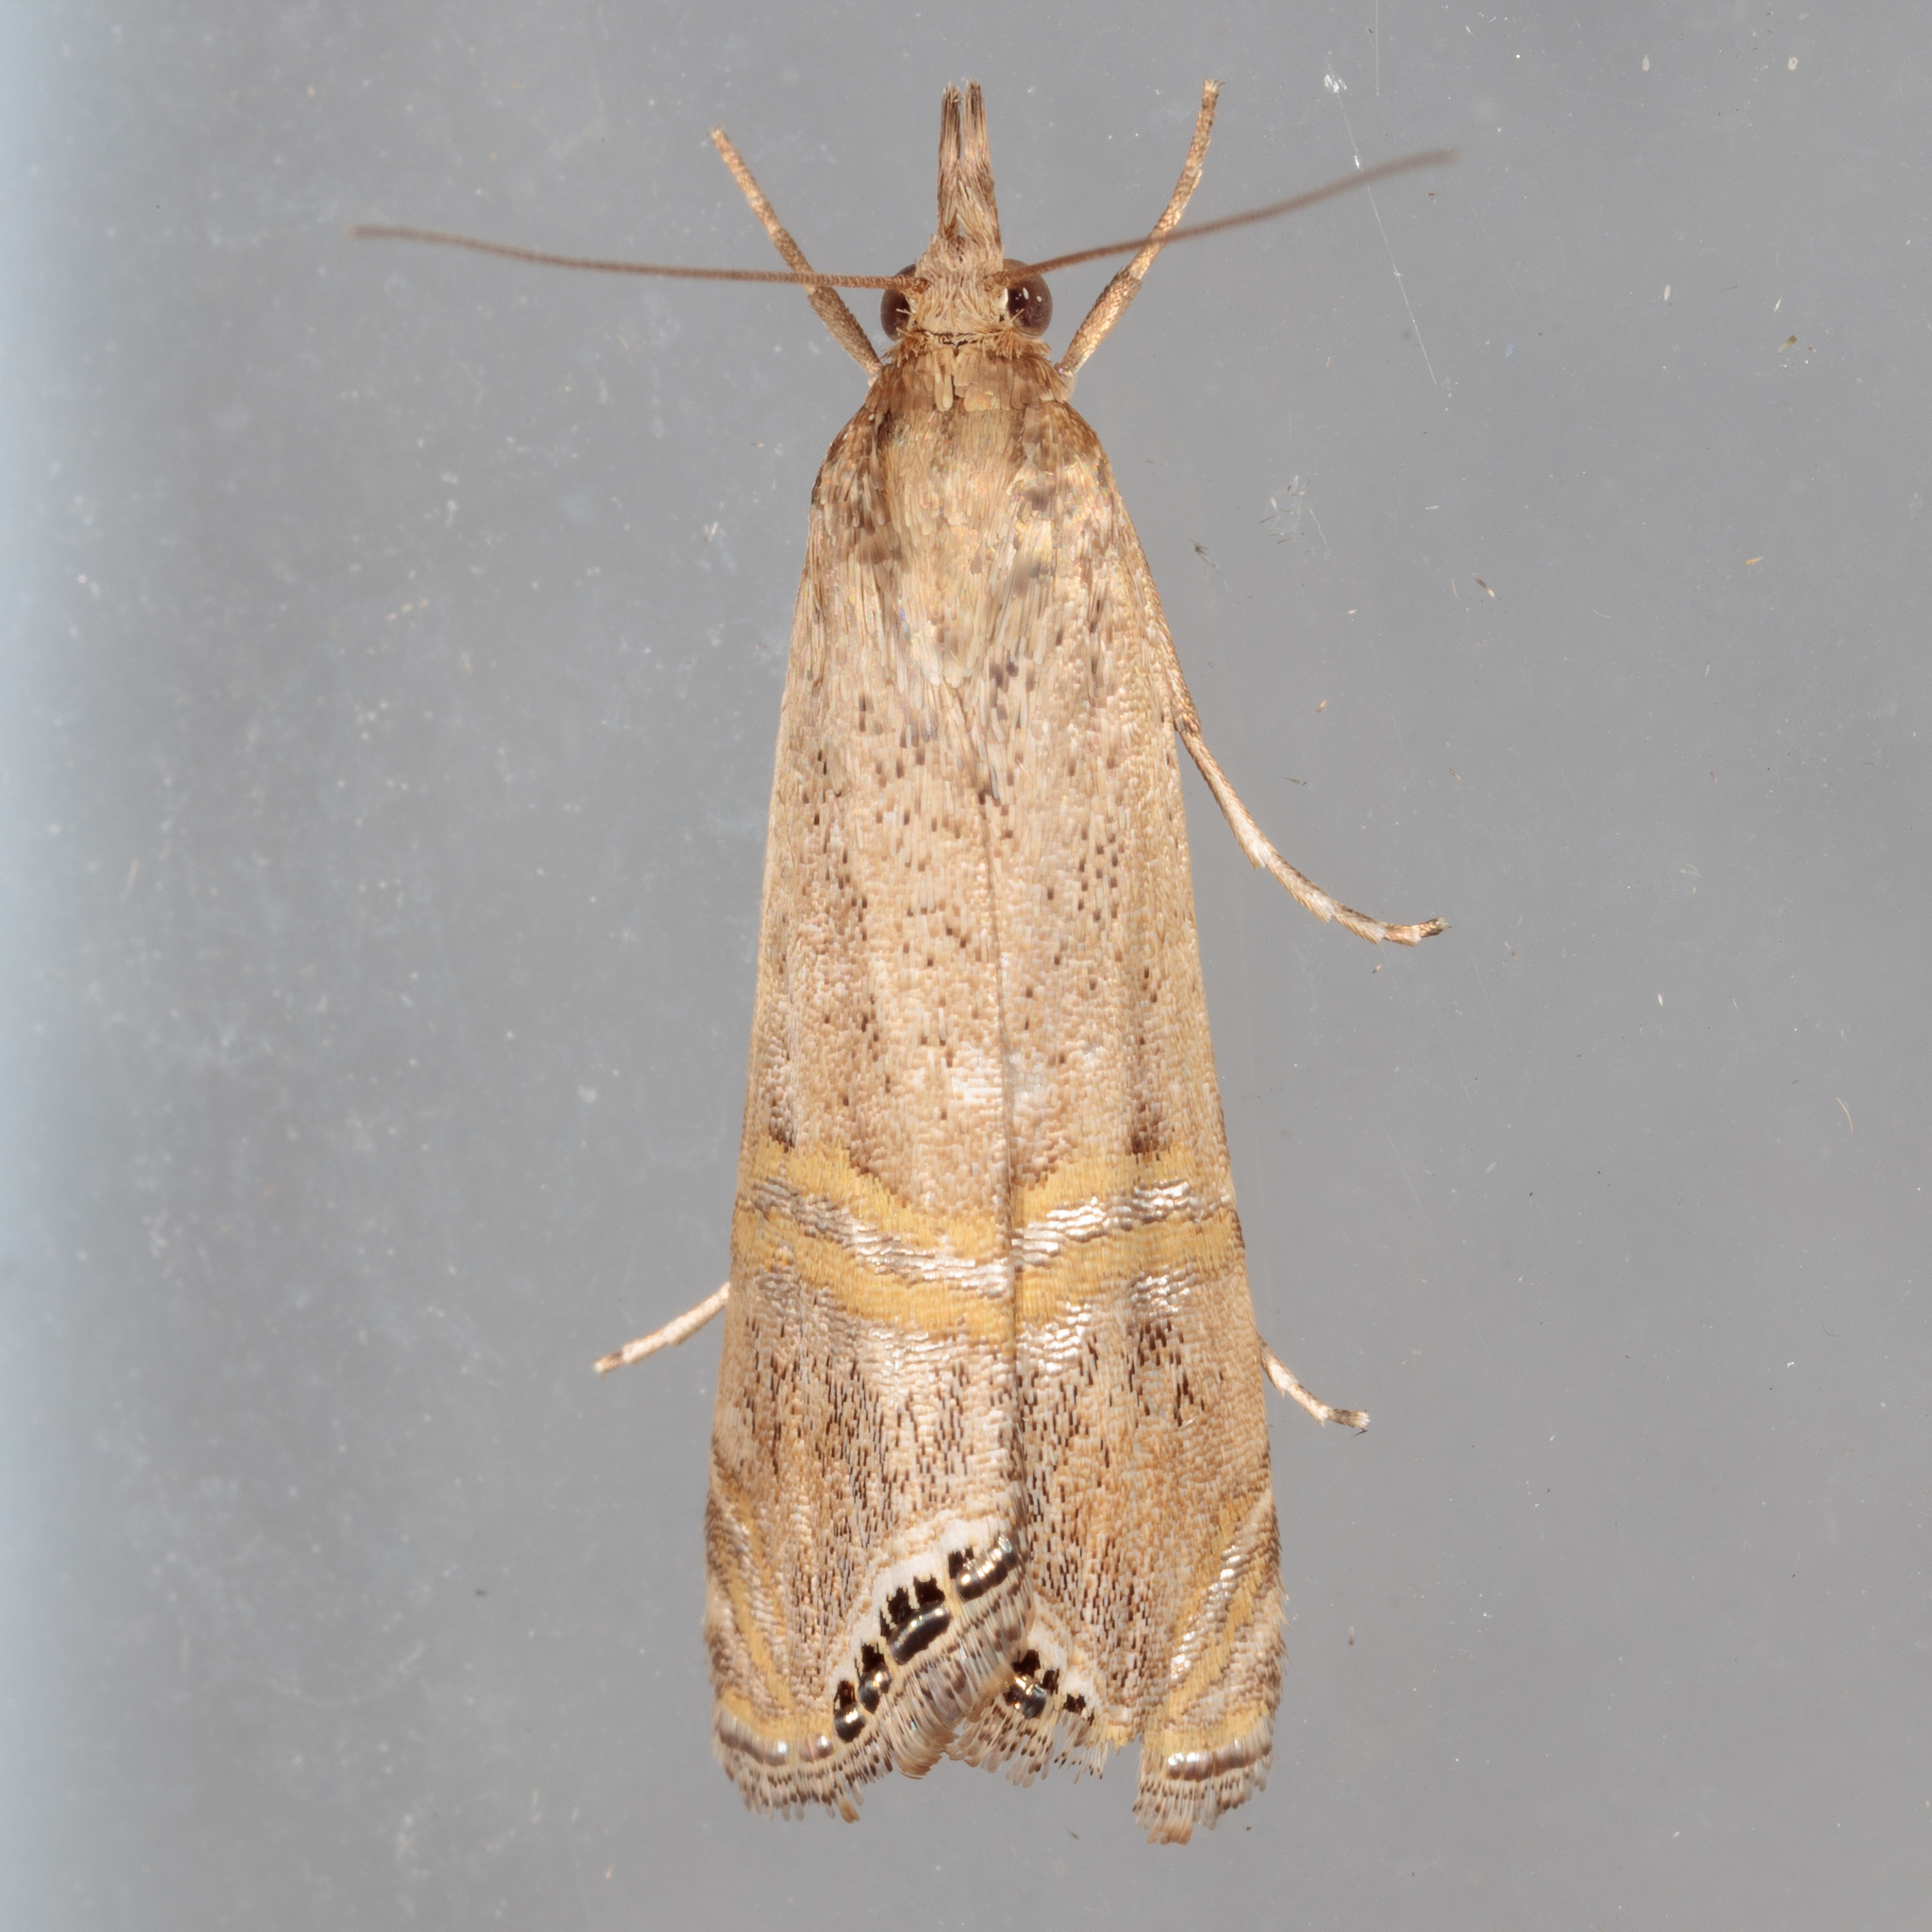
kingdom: Animalia
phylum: Arthropoda
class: Insecta
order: Lepidoptera
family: Crambidae
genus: Euchromius
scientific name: Euchromius ocellea
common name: Necklace veneer moth
